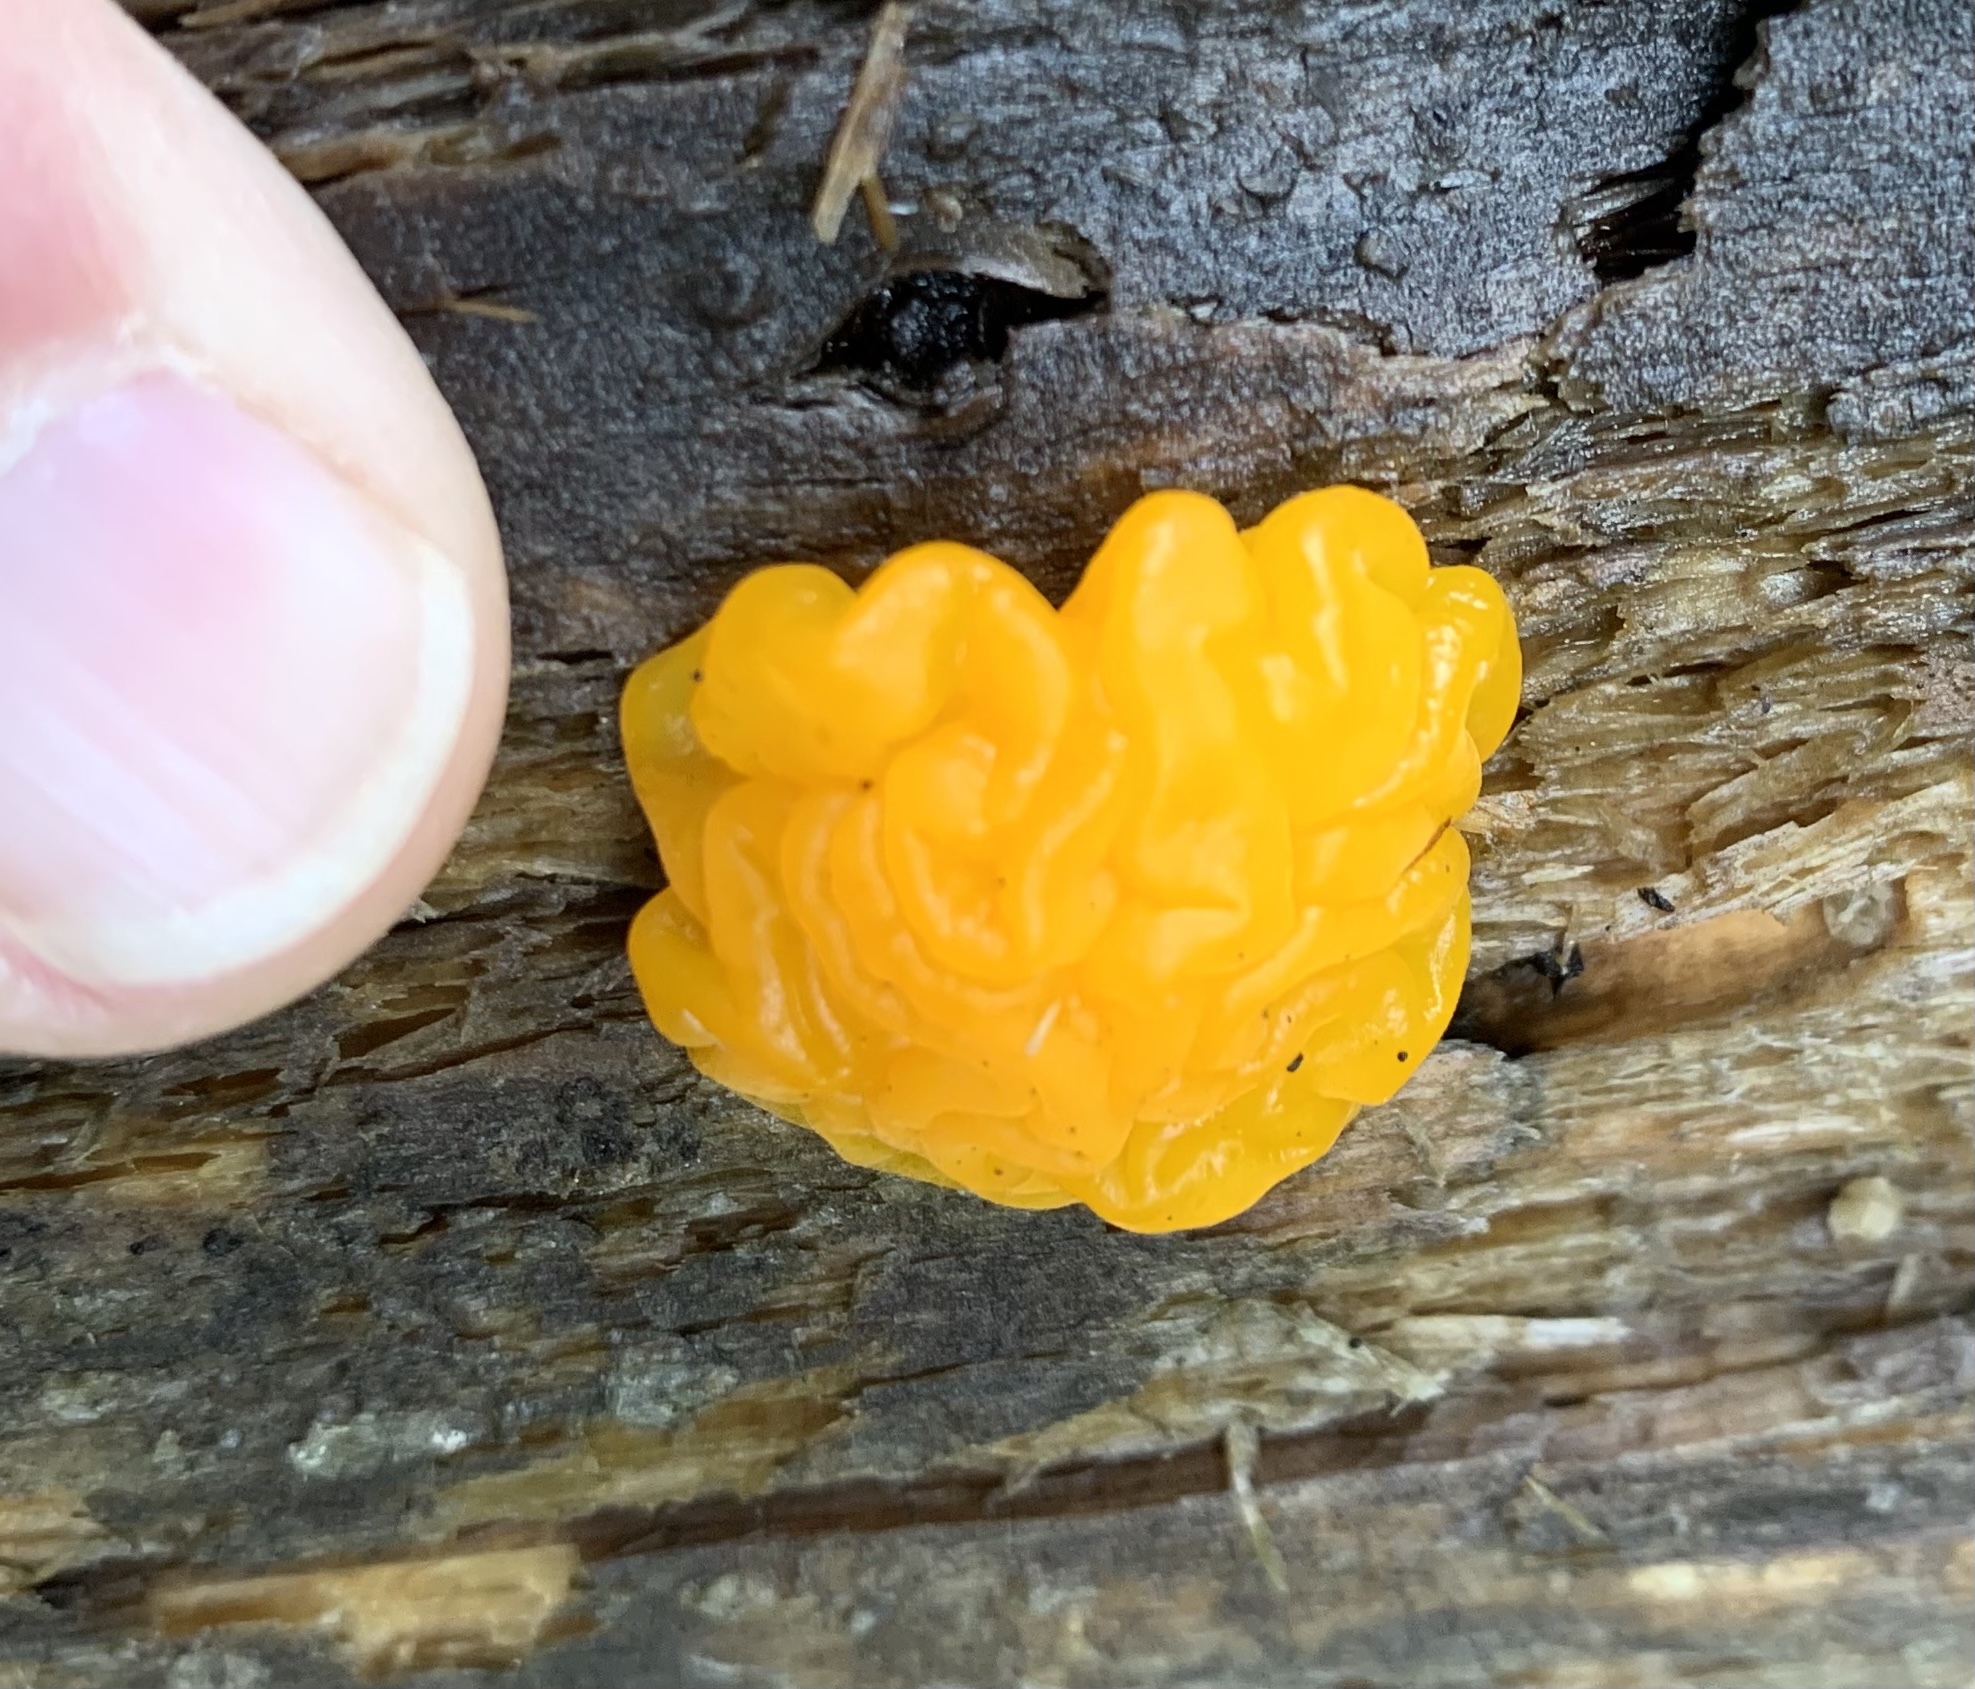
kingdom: Fungi
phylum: Basidiomycota
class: Dacrymycetes
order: Dacrymycetales
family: Dacrymycetaceae
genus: Dacrymyces
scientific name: Dacrymyces chrysospermus
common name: Orange jelly spot
